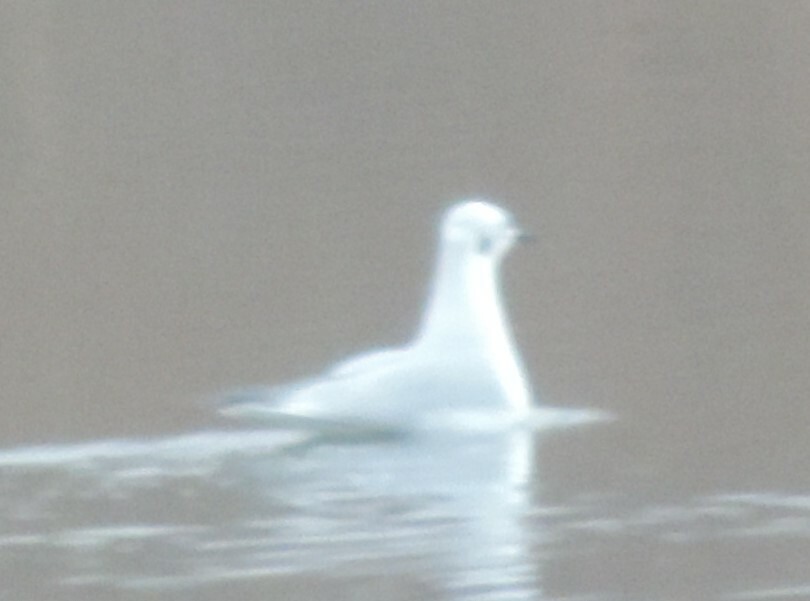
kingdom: Animalia
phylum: Chordata
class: Aves
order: Charadriiformes
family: Laridae
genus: Chroicocephalus
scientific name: Chroicocephalus philadelphia
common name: Bonaparte's gull
